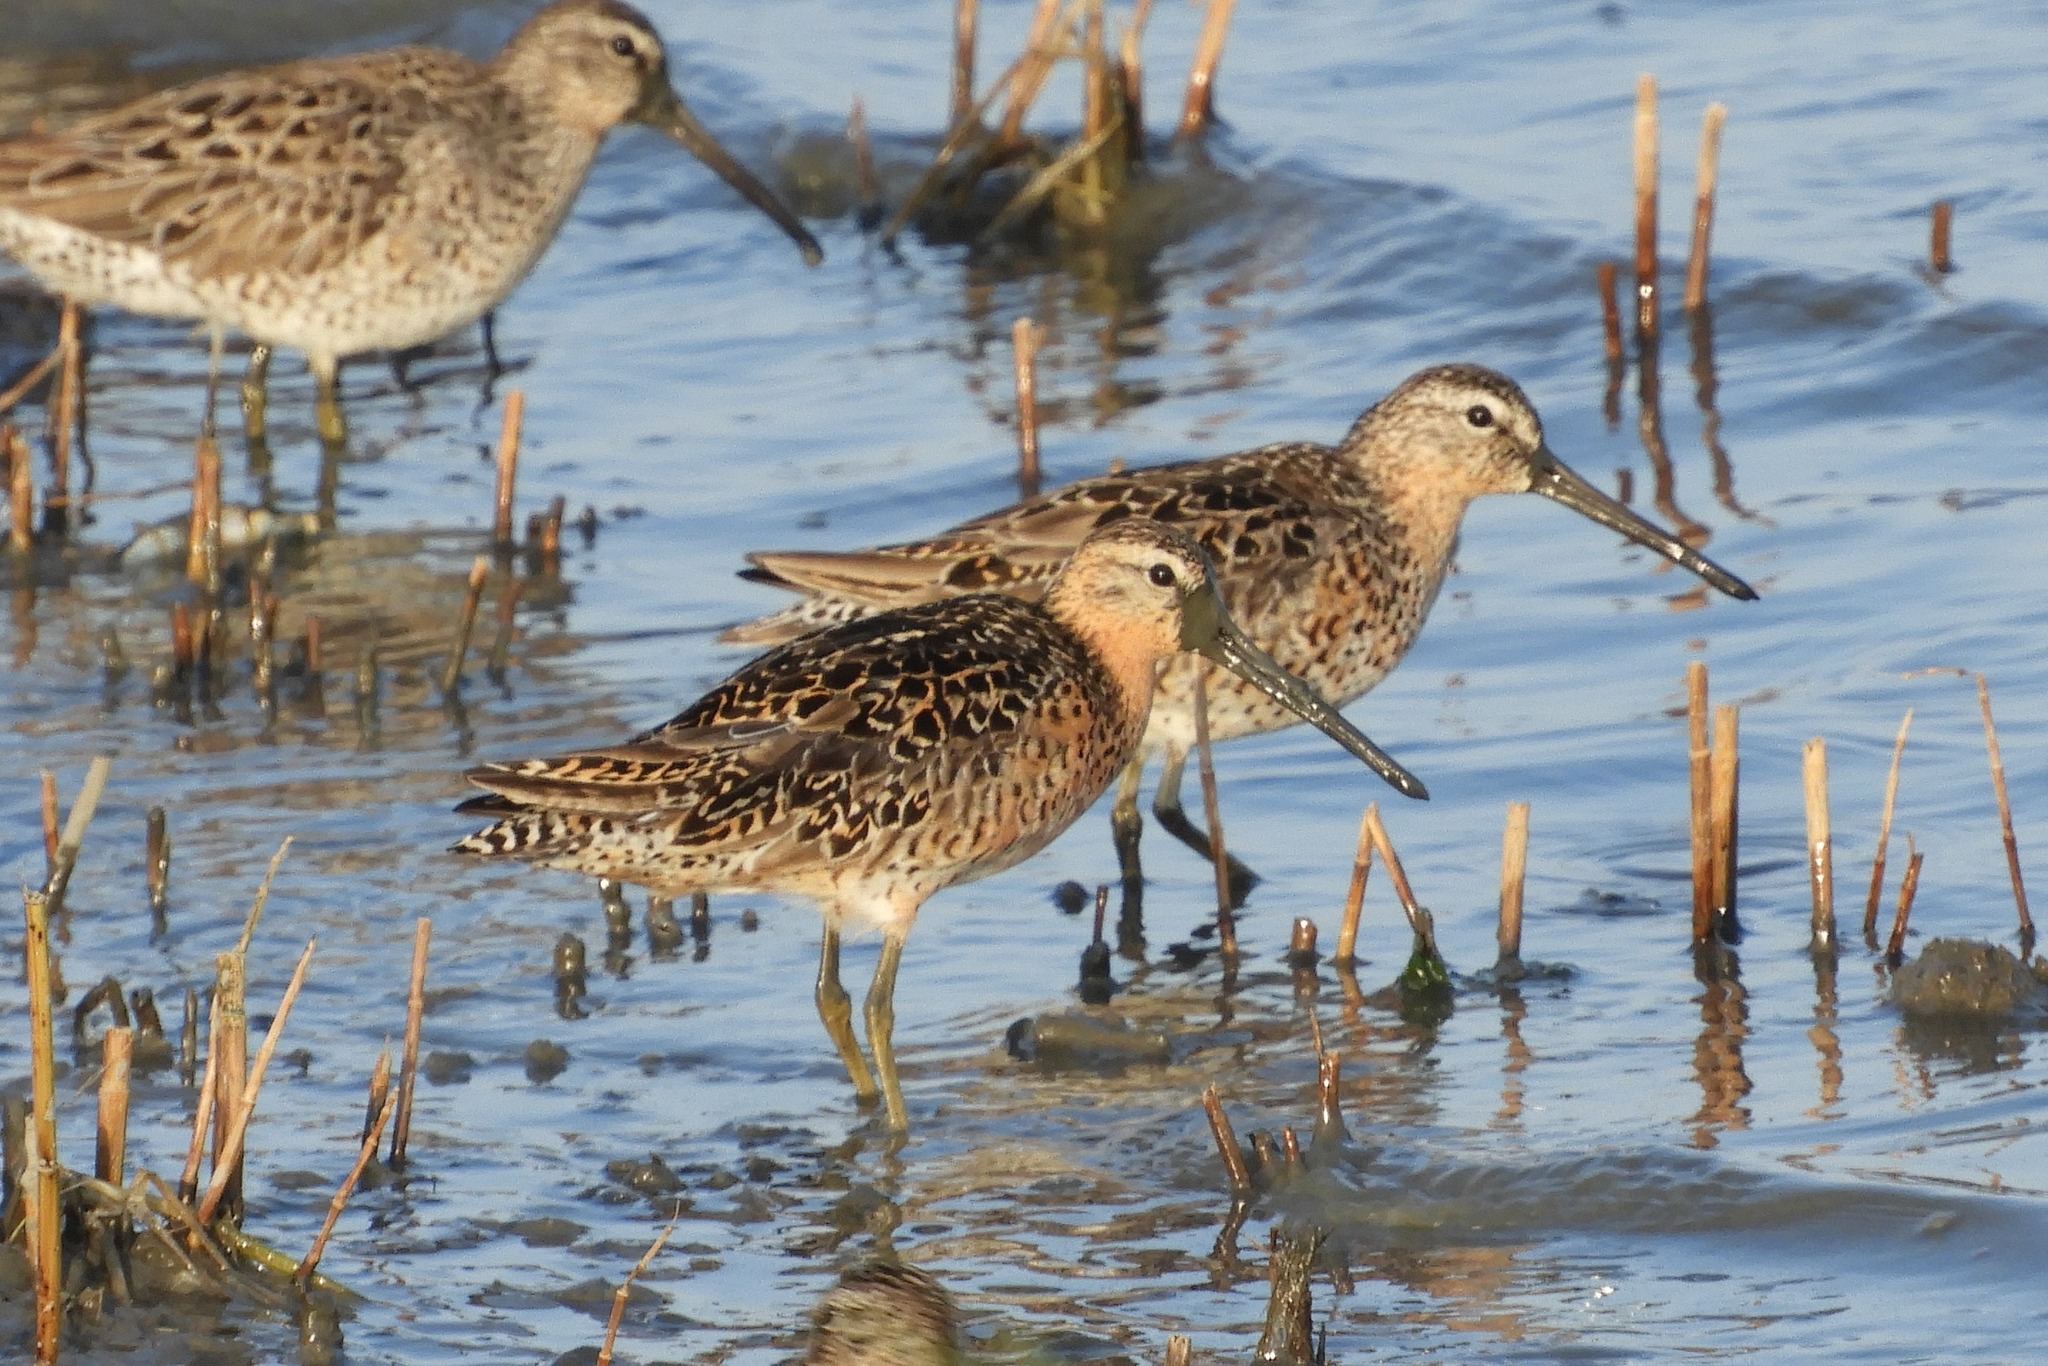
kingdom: Animalia
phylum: Chordata
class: Aves
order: Charadriiformes
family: Scolopacidae
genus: Limnodromus
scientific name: Limnodromus griseus
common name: Short-billed dowitcher
